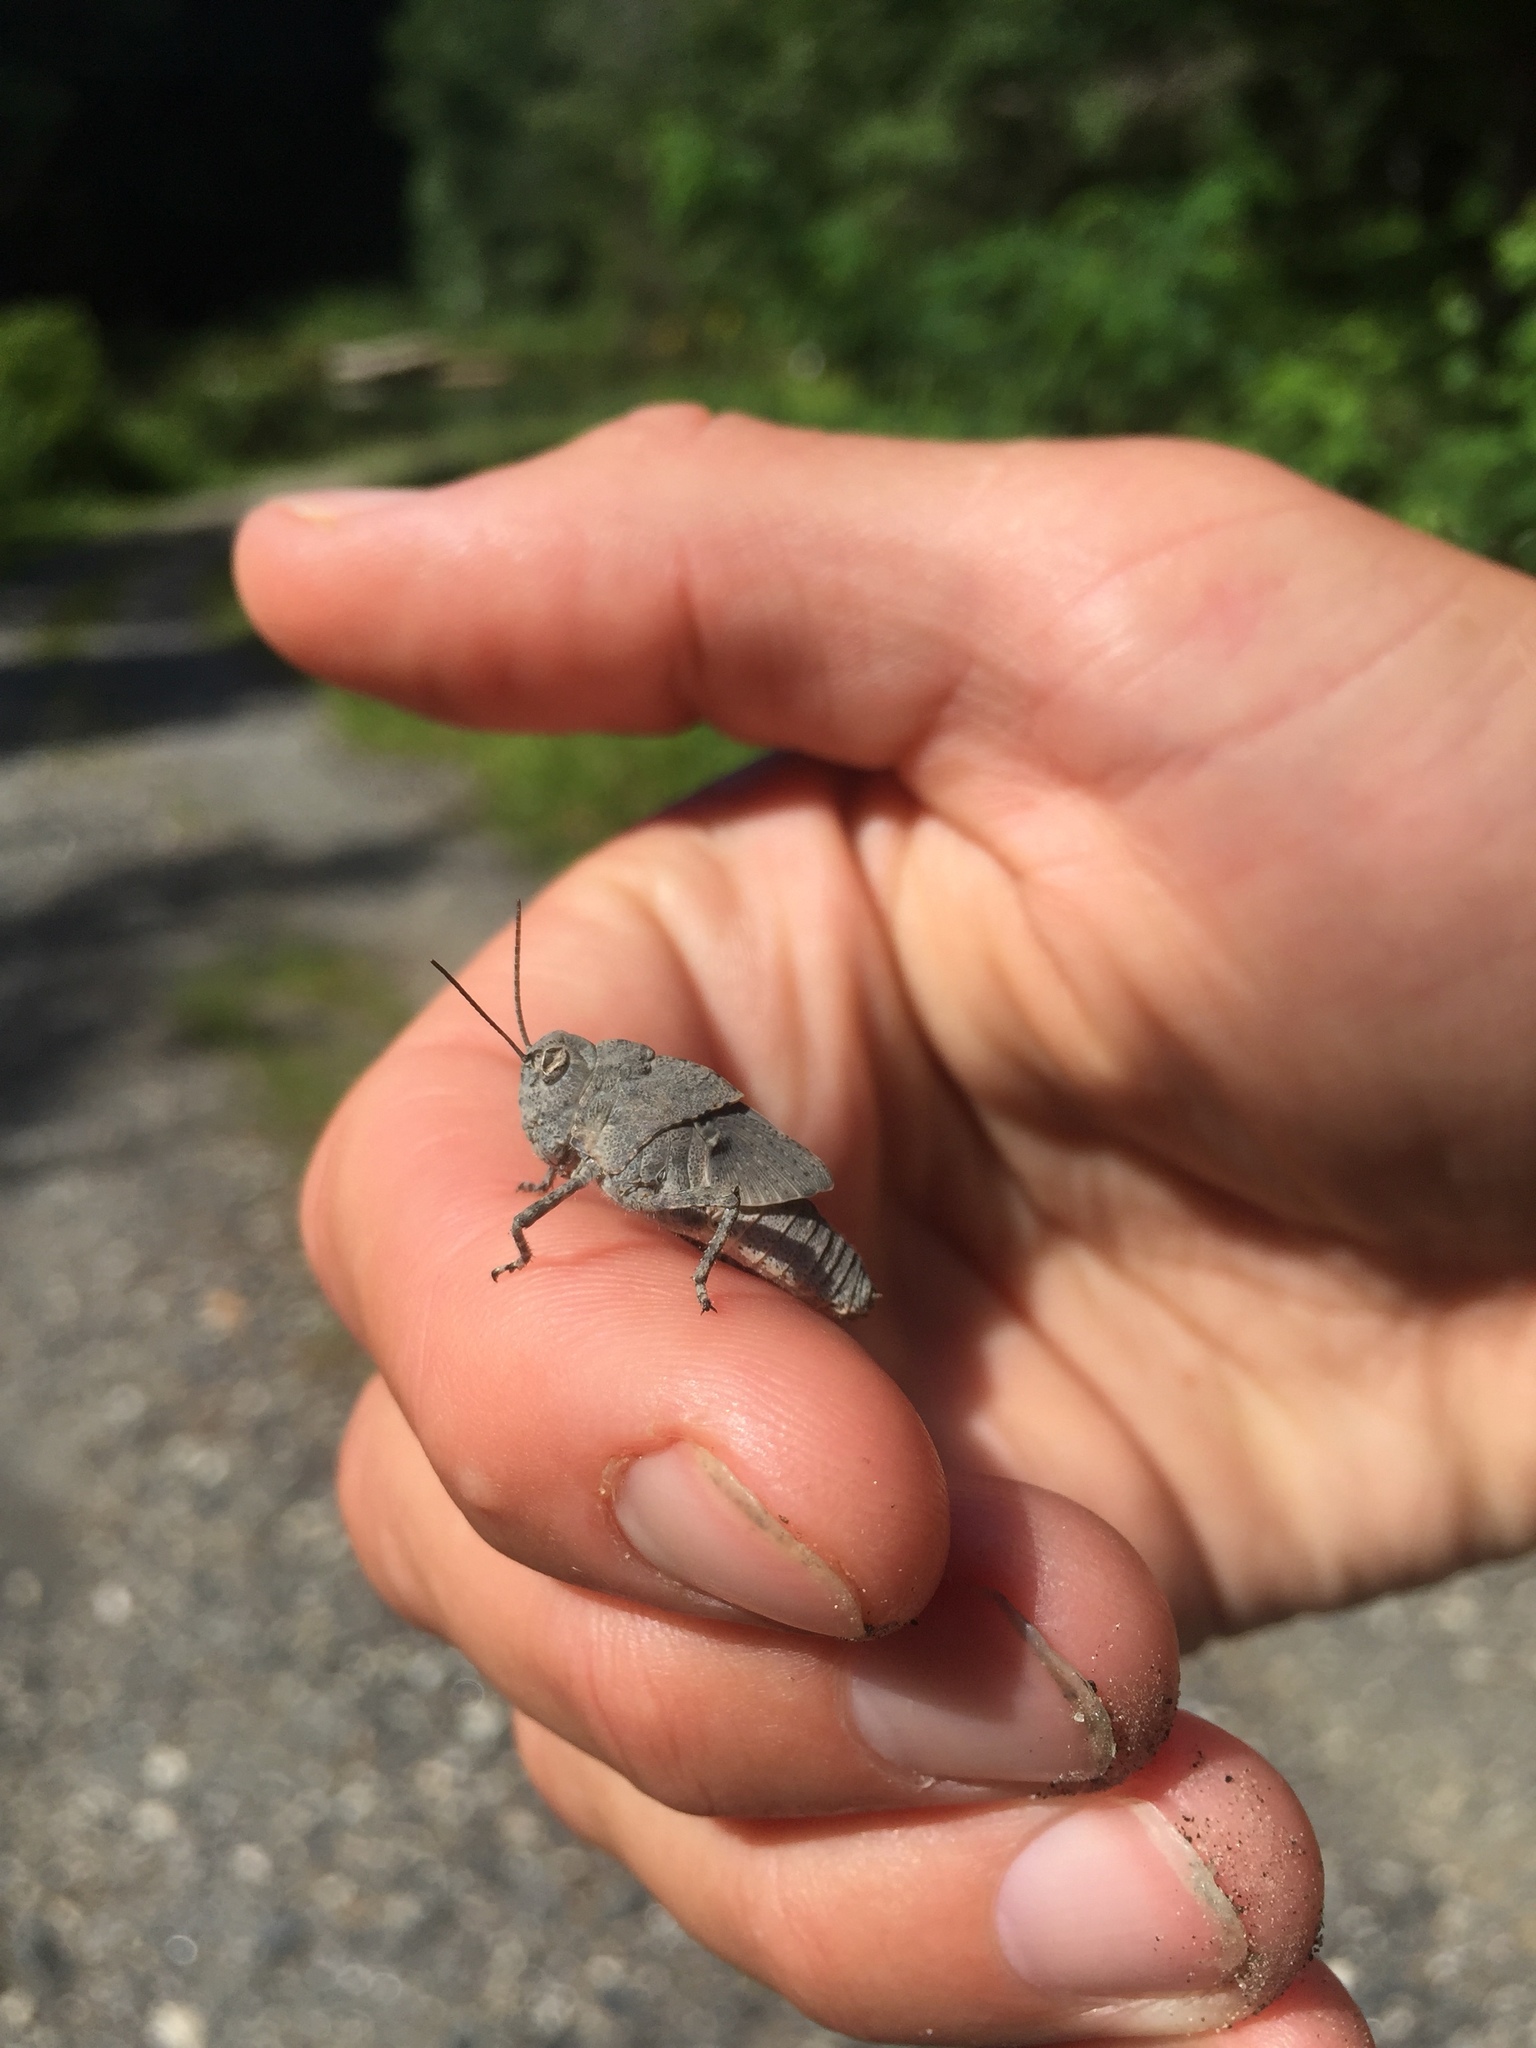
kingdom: Animalia
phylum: Arthropoda
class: Insecta
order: Orthoptera
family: Acrididae
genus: Dissosteira
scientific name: Dissosteira carolina
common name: Carolina grasshopper
